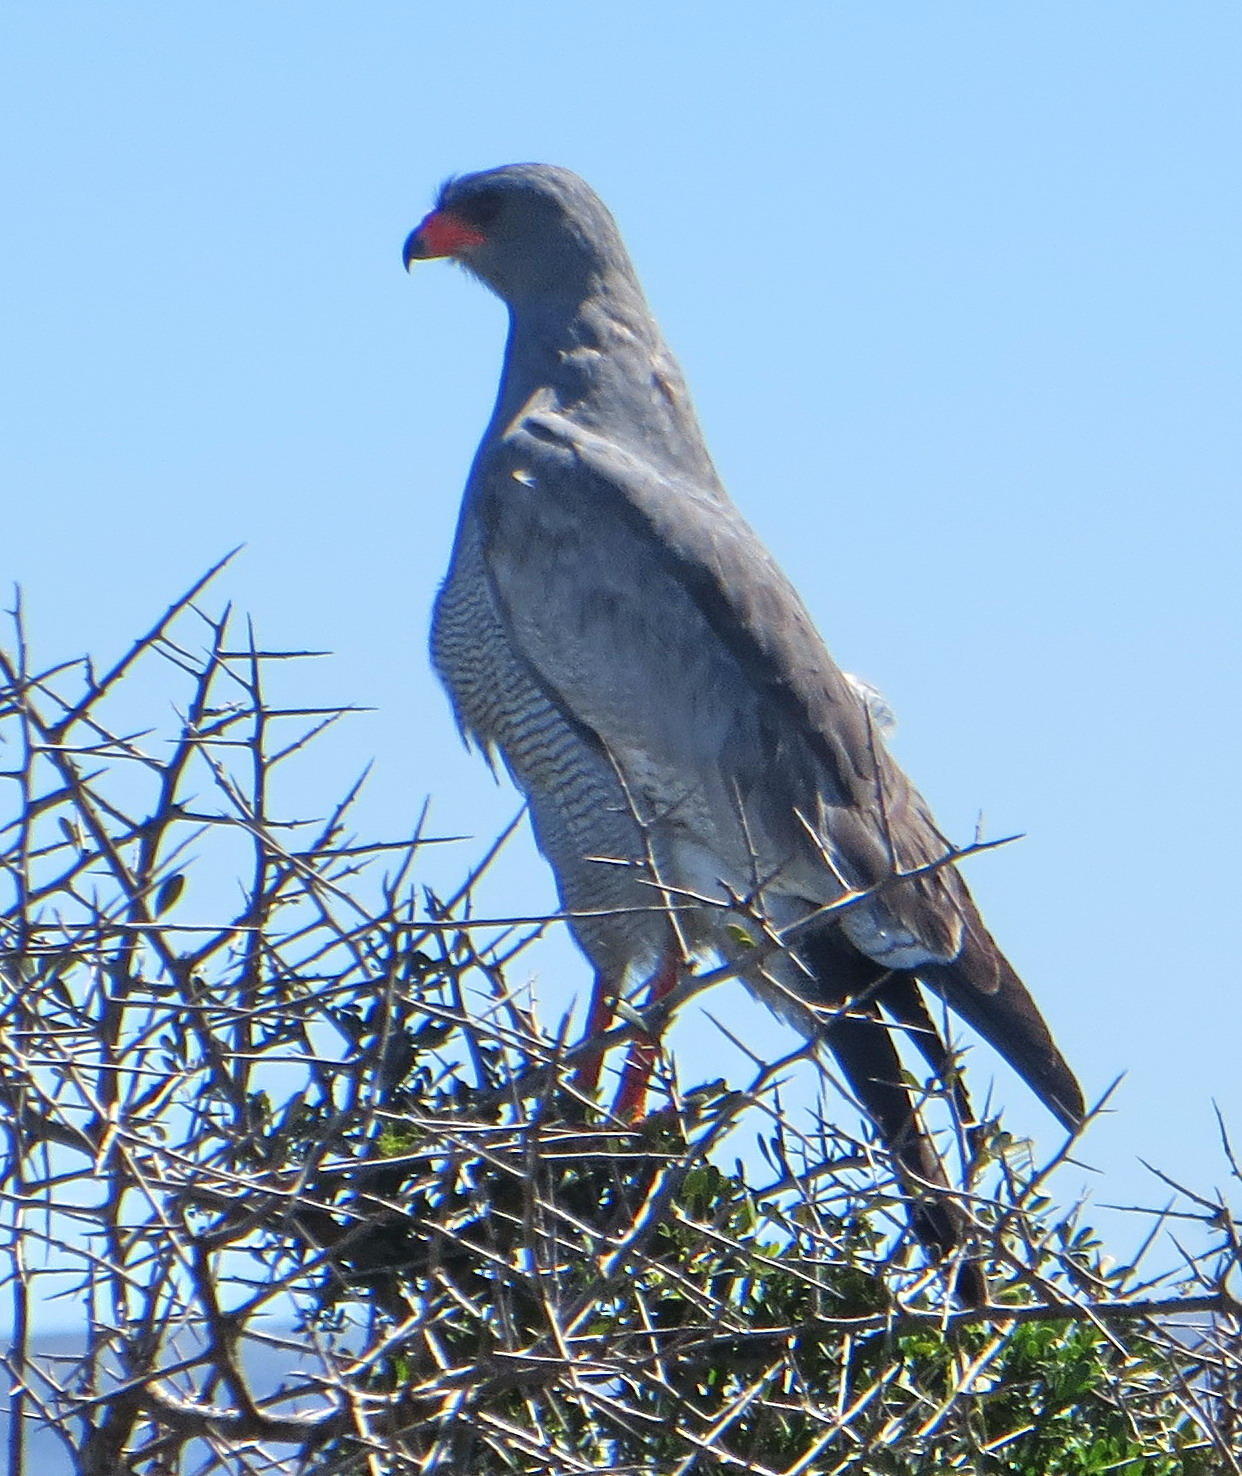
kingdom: Animalia
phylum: Chordata
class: Aves
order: Accipitriformes
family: Accipitridae
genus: Melierax
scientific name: Melierax canorus
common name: Pale chanting-goshawk
